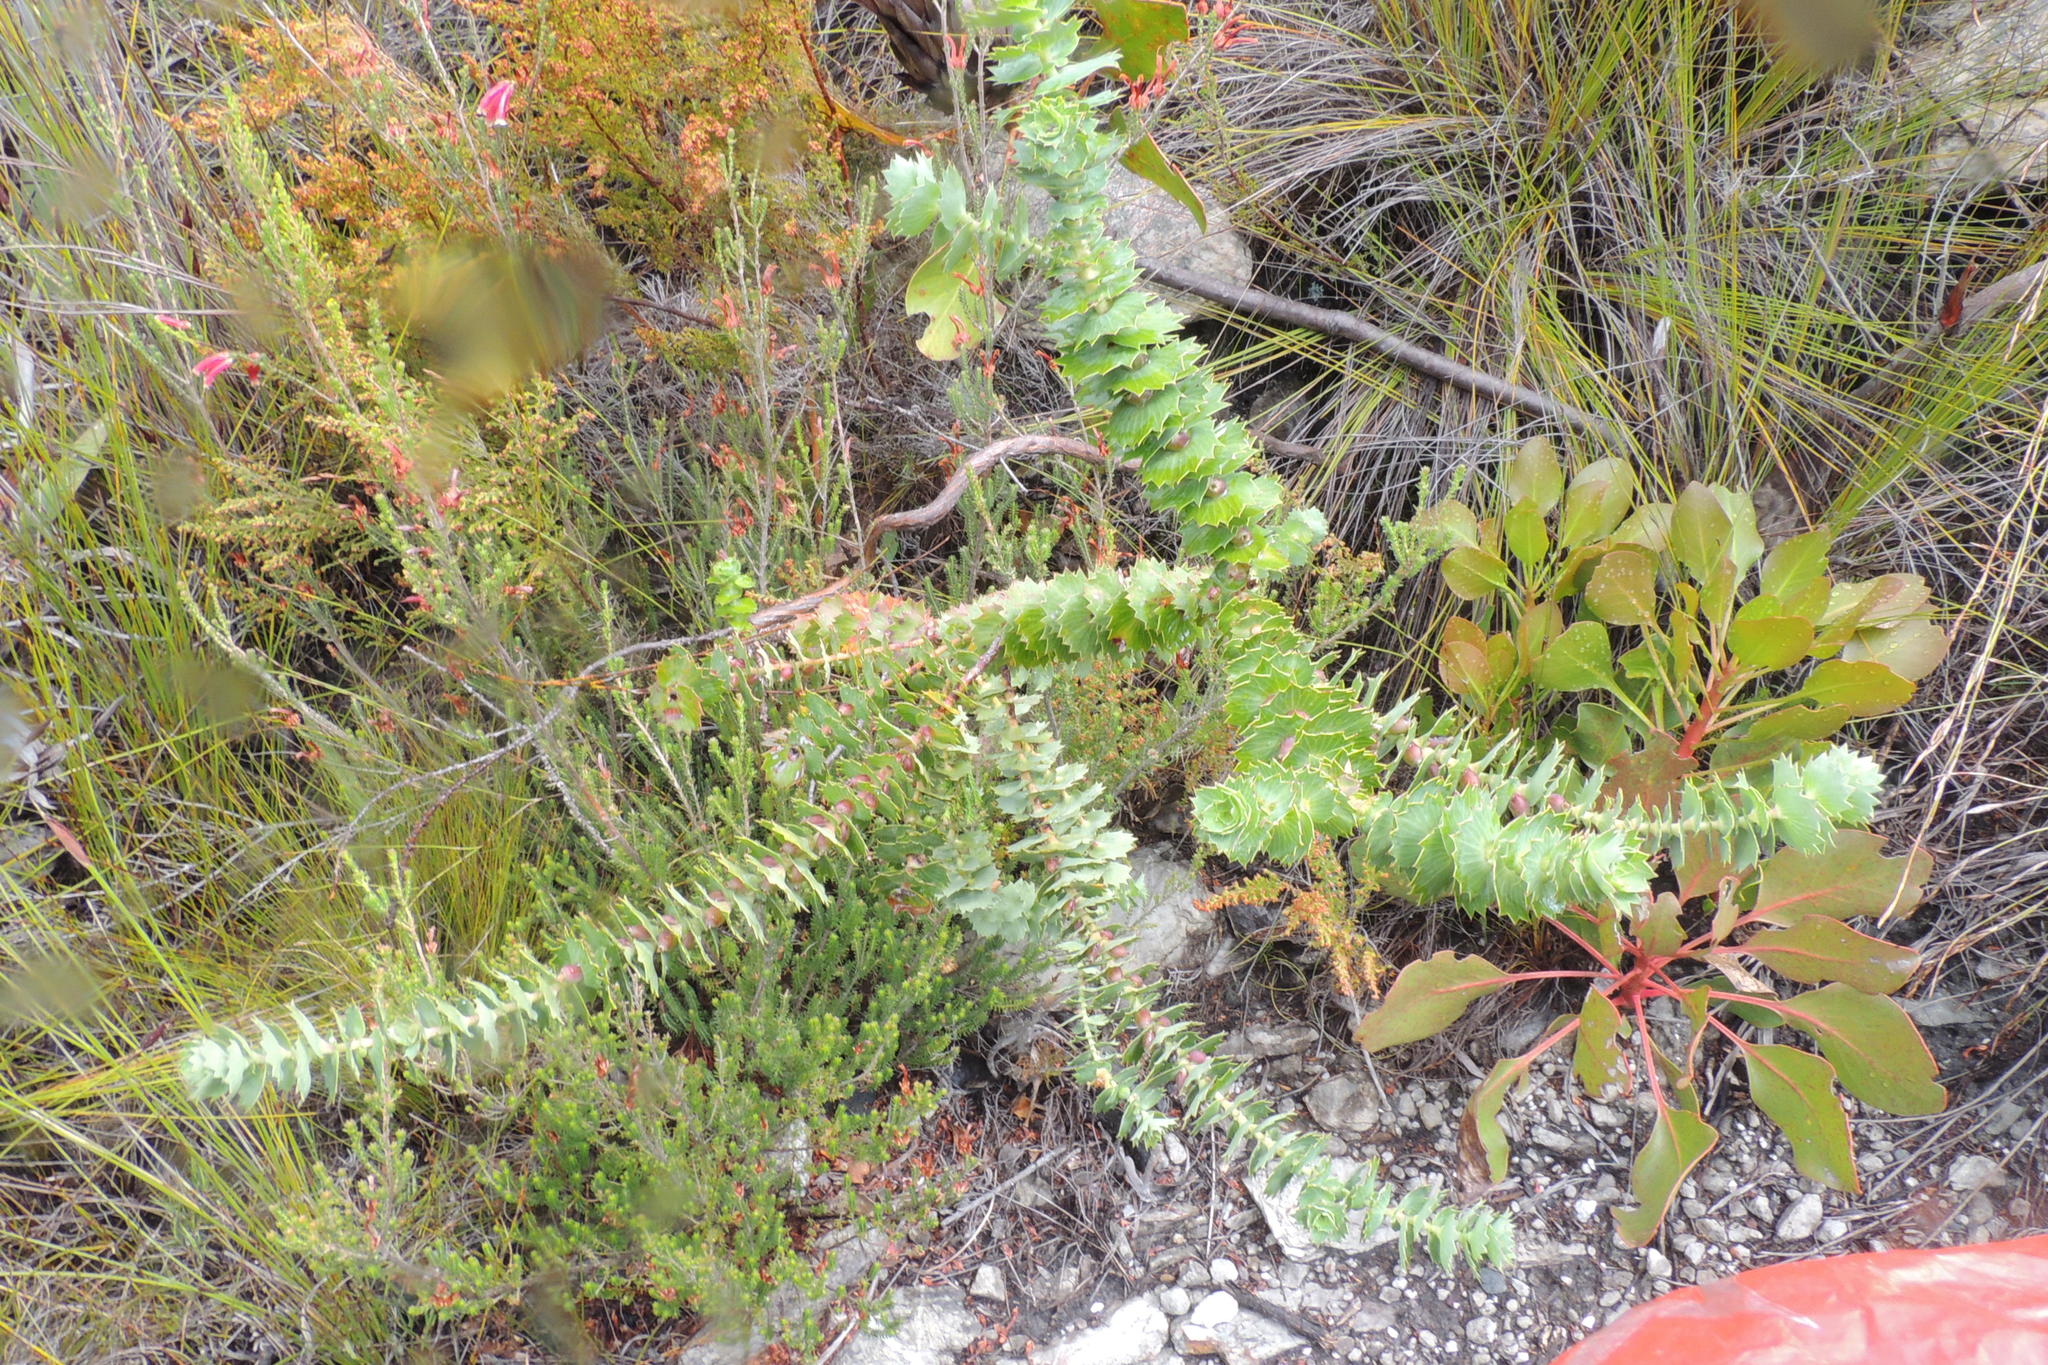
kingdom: Plantae
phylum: Tracheophyta
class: Magnoliopsida
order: Rosales
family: Rosaceae
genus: Cliffortia
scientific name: Cliffortia reniformis
